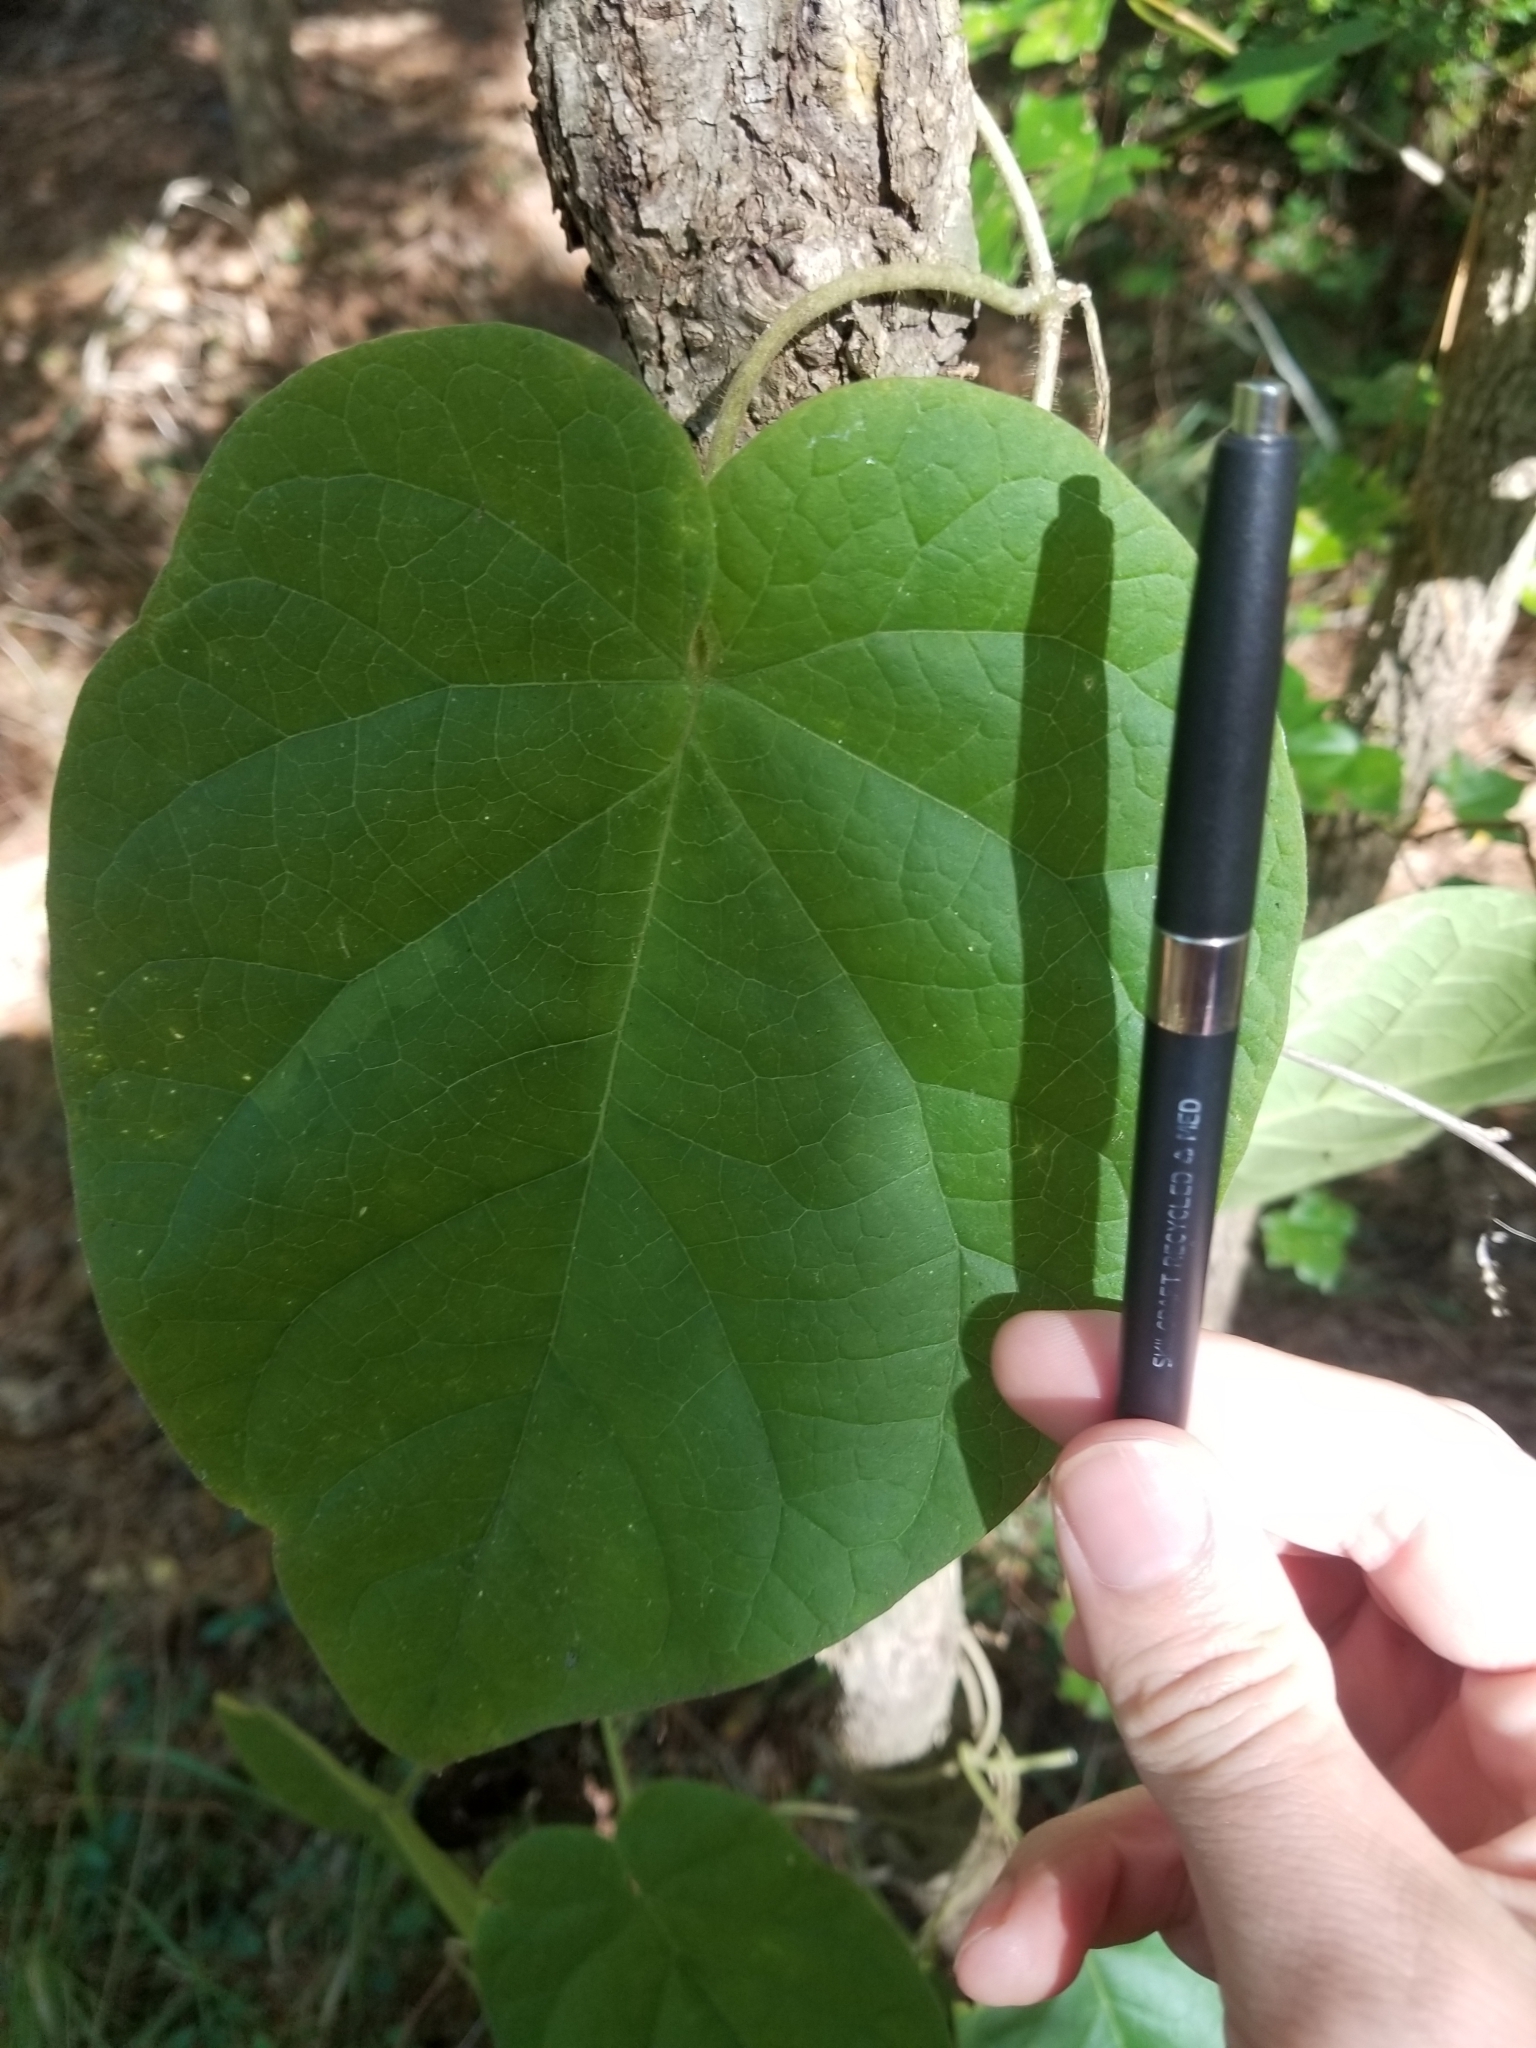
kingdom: Plantae
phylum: Tracheophyta
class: Magnoliopsida
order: Gentianales
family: Apocynaceae
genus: Matelea
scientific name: Matelea carolinensis
